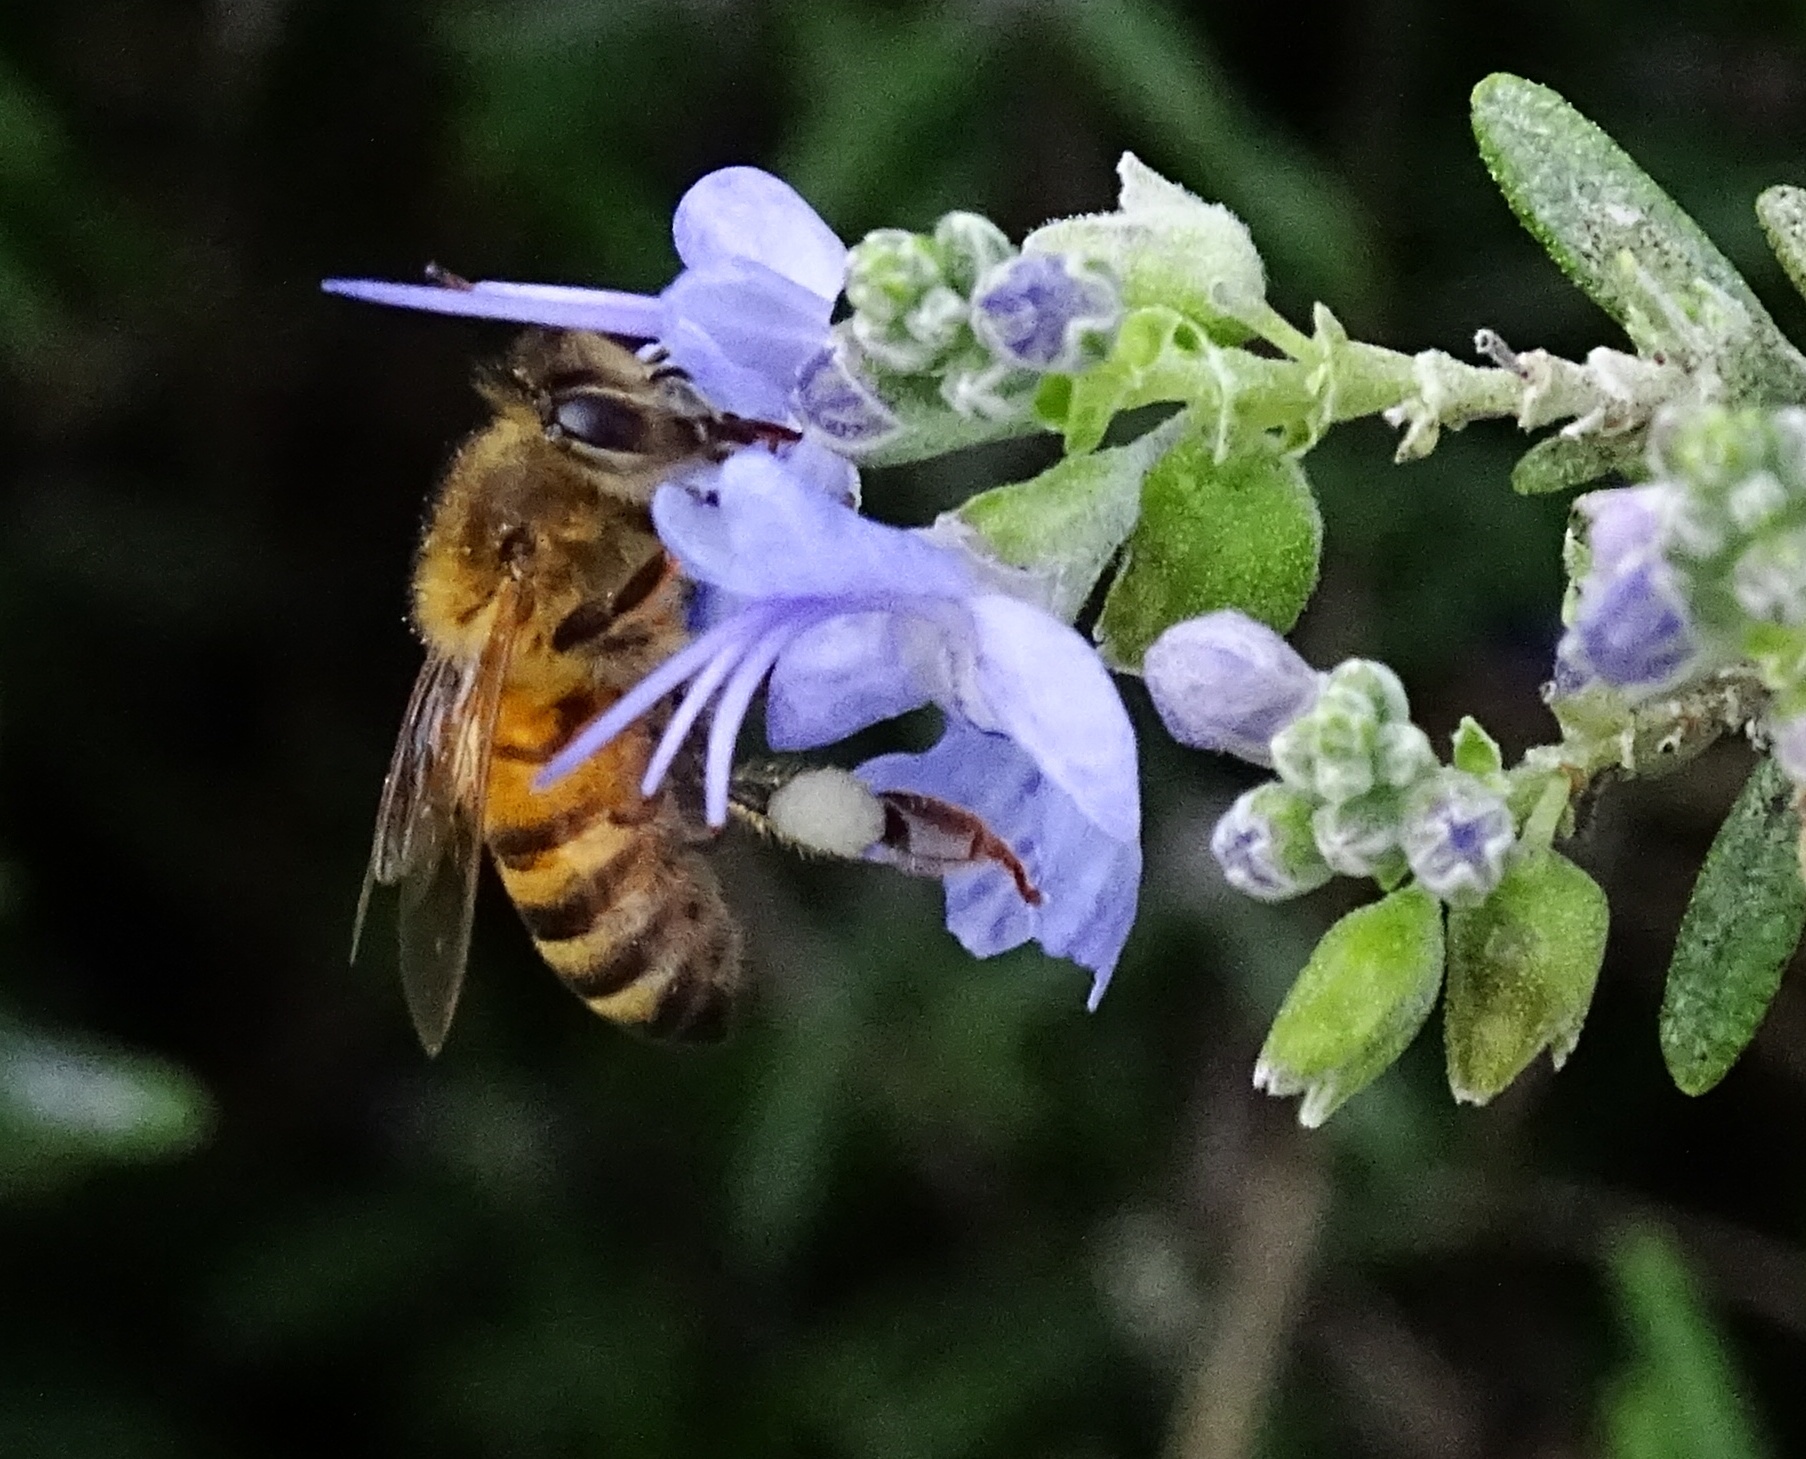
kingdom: Animalia
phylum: Arthropoda
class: Insecta
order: Hymenoptera
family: Apidae
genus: Apis
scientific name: Apis mellifera
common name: Honey bee
